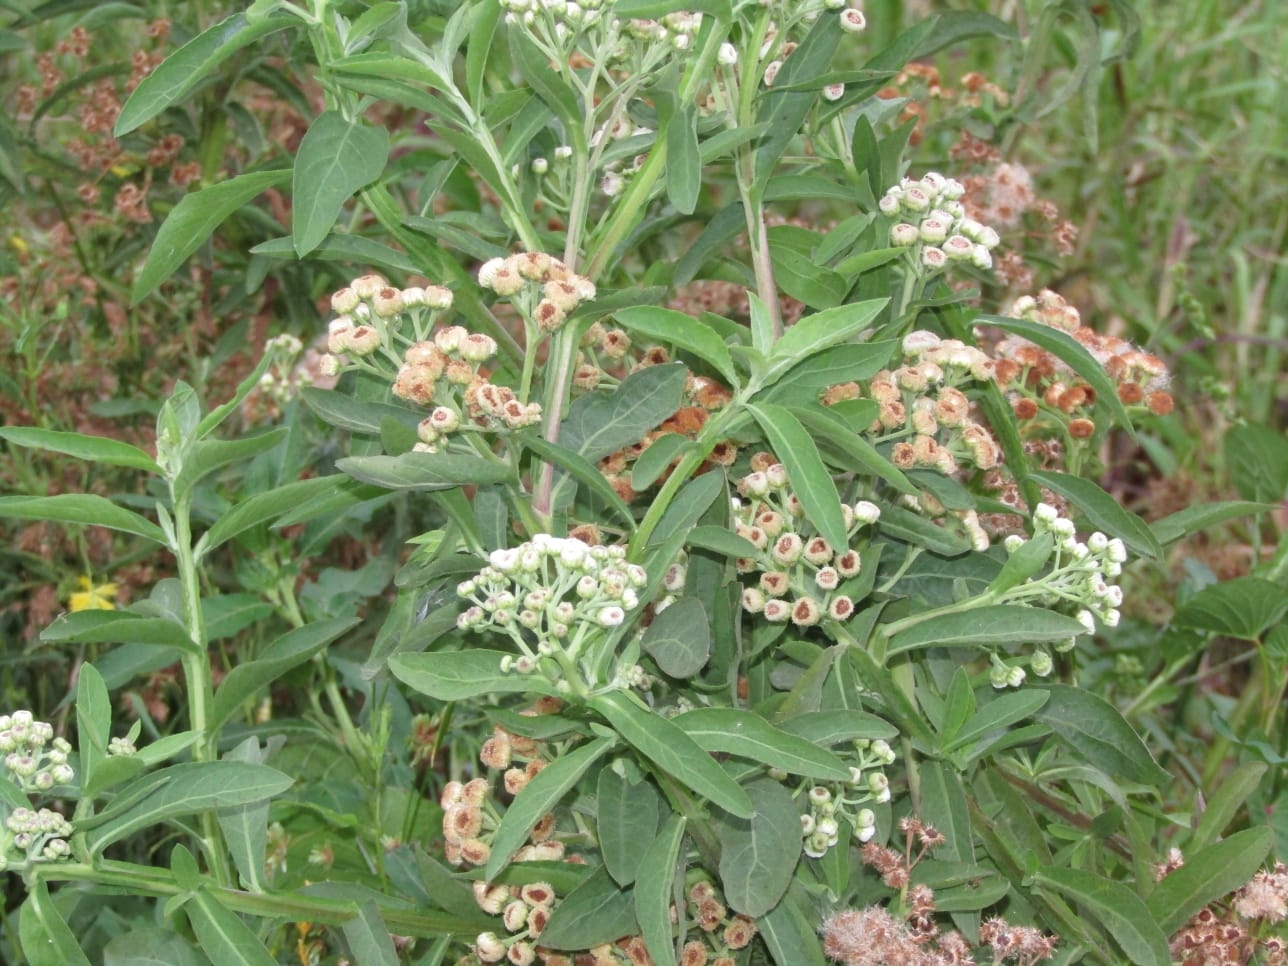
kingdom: Plantae
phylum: Tracheophyta
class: Magnoliopsida
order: Asterales
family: Asteraceae
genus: Pluchea
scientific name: Pluchea sagittalis
